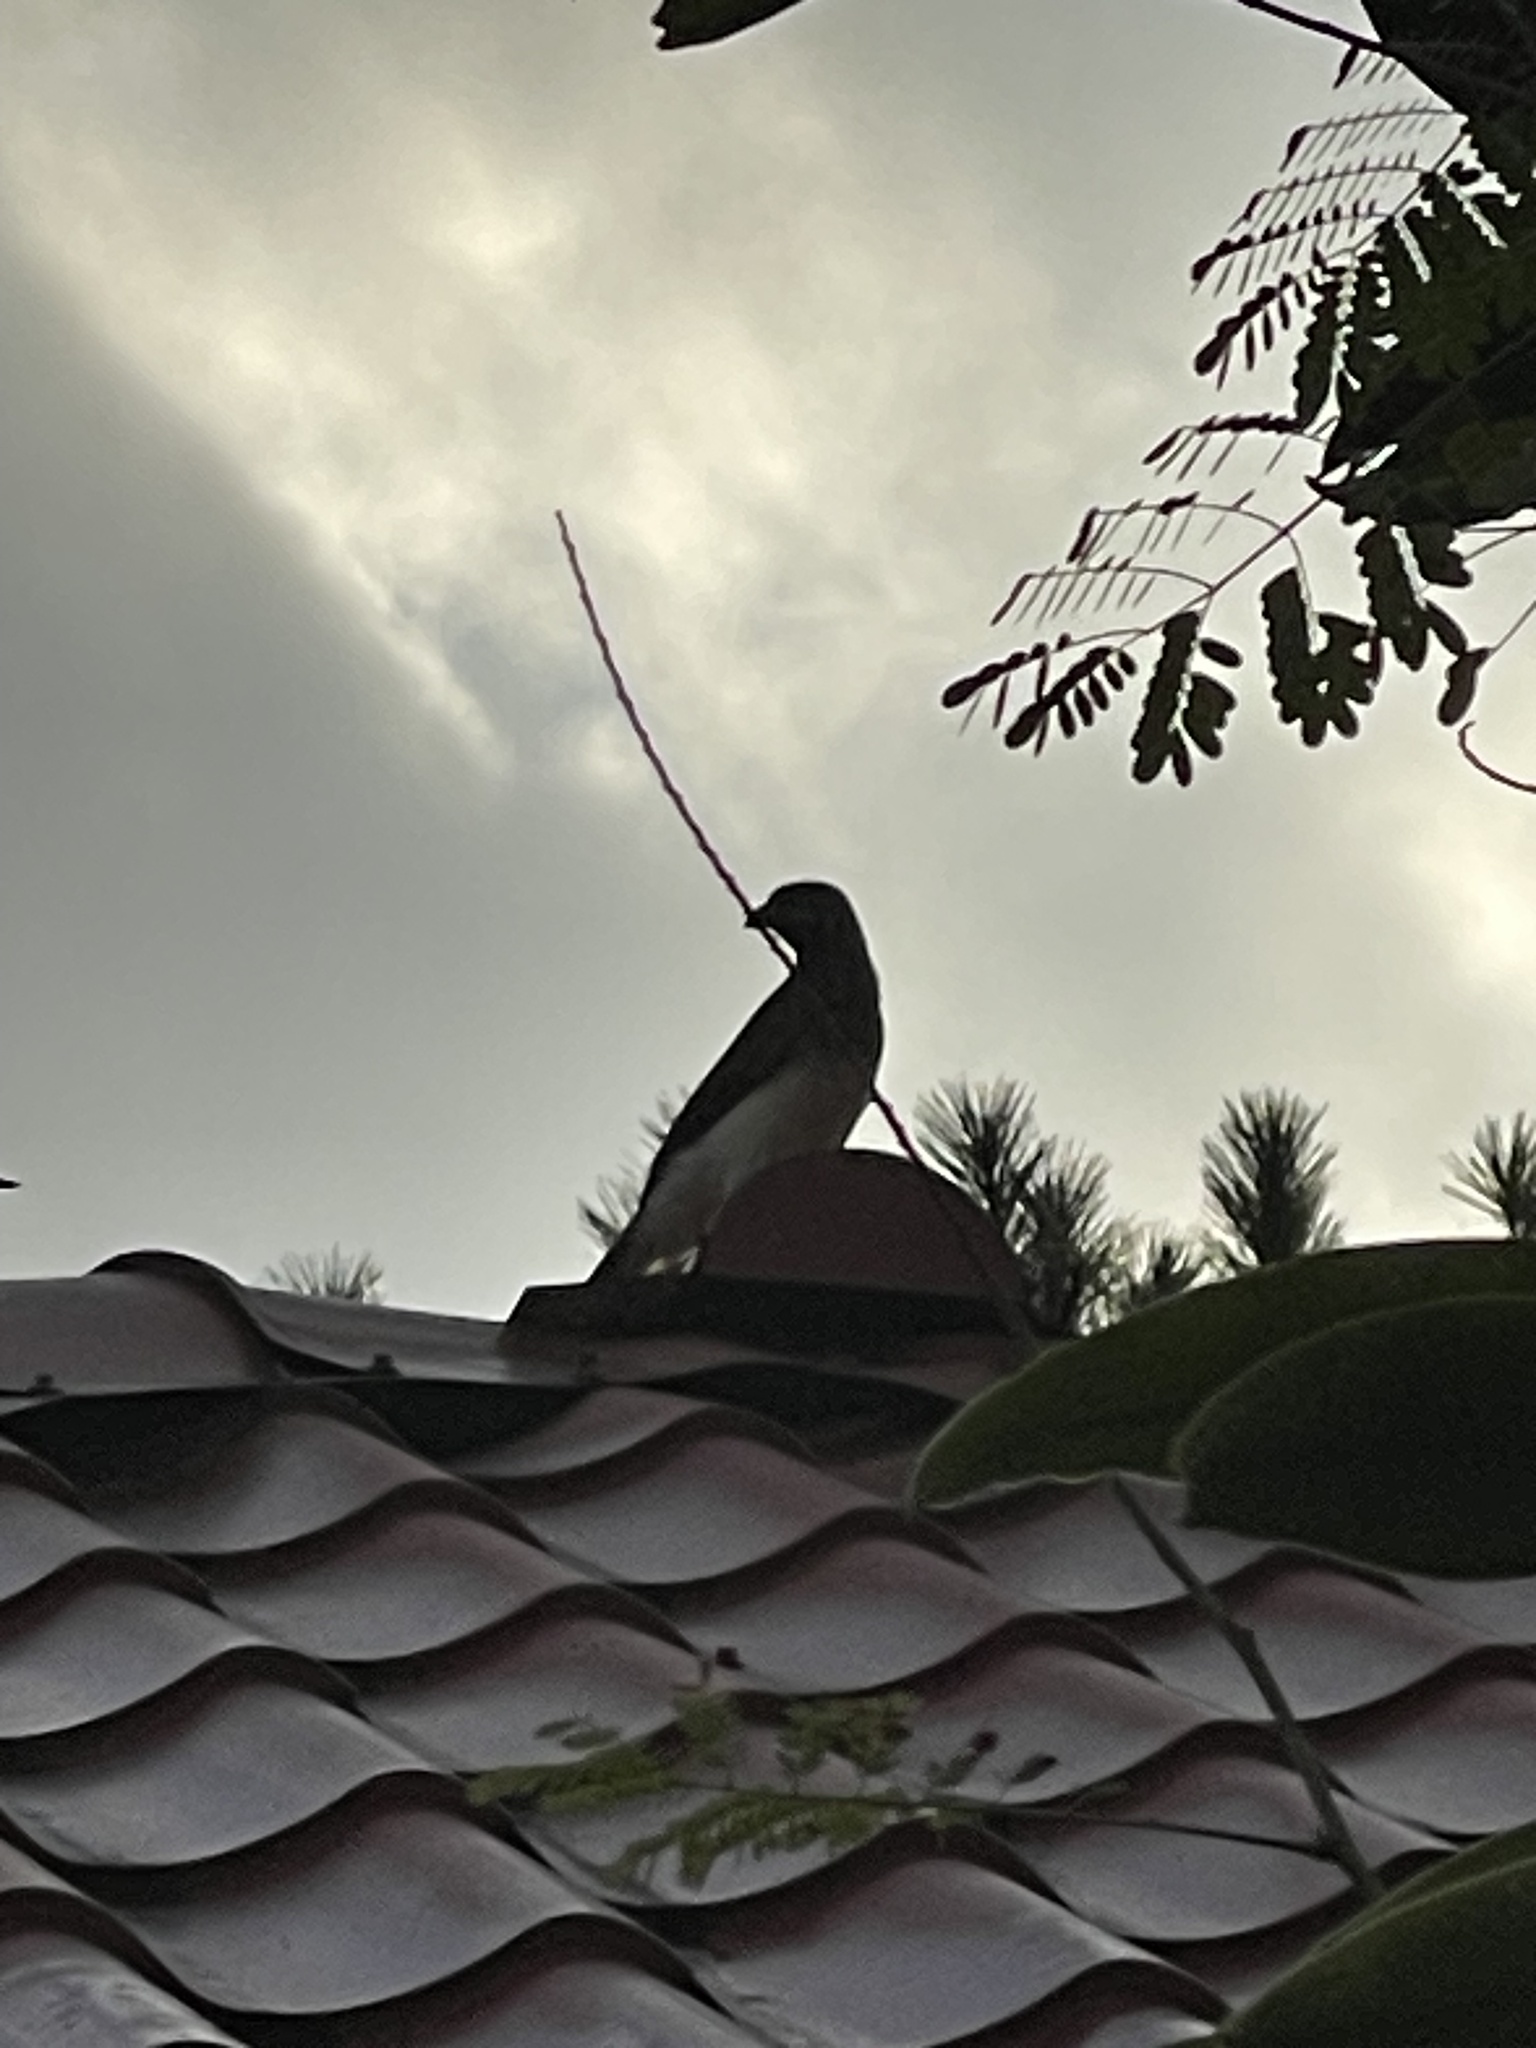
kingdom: Animalia
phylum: Chordata
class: Aves
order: Passeriformes
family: Corvidae
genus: Psilorhinus
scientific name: Psilorhinus morio
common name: Brown jay
